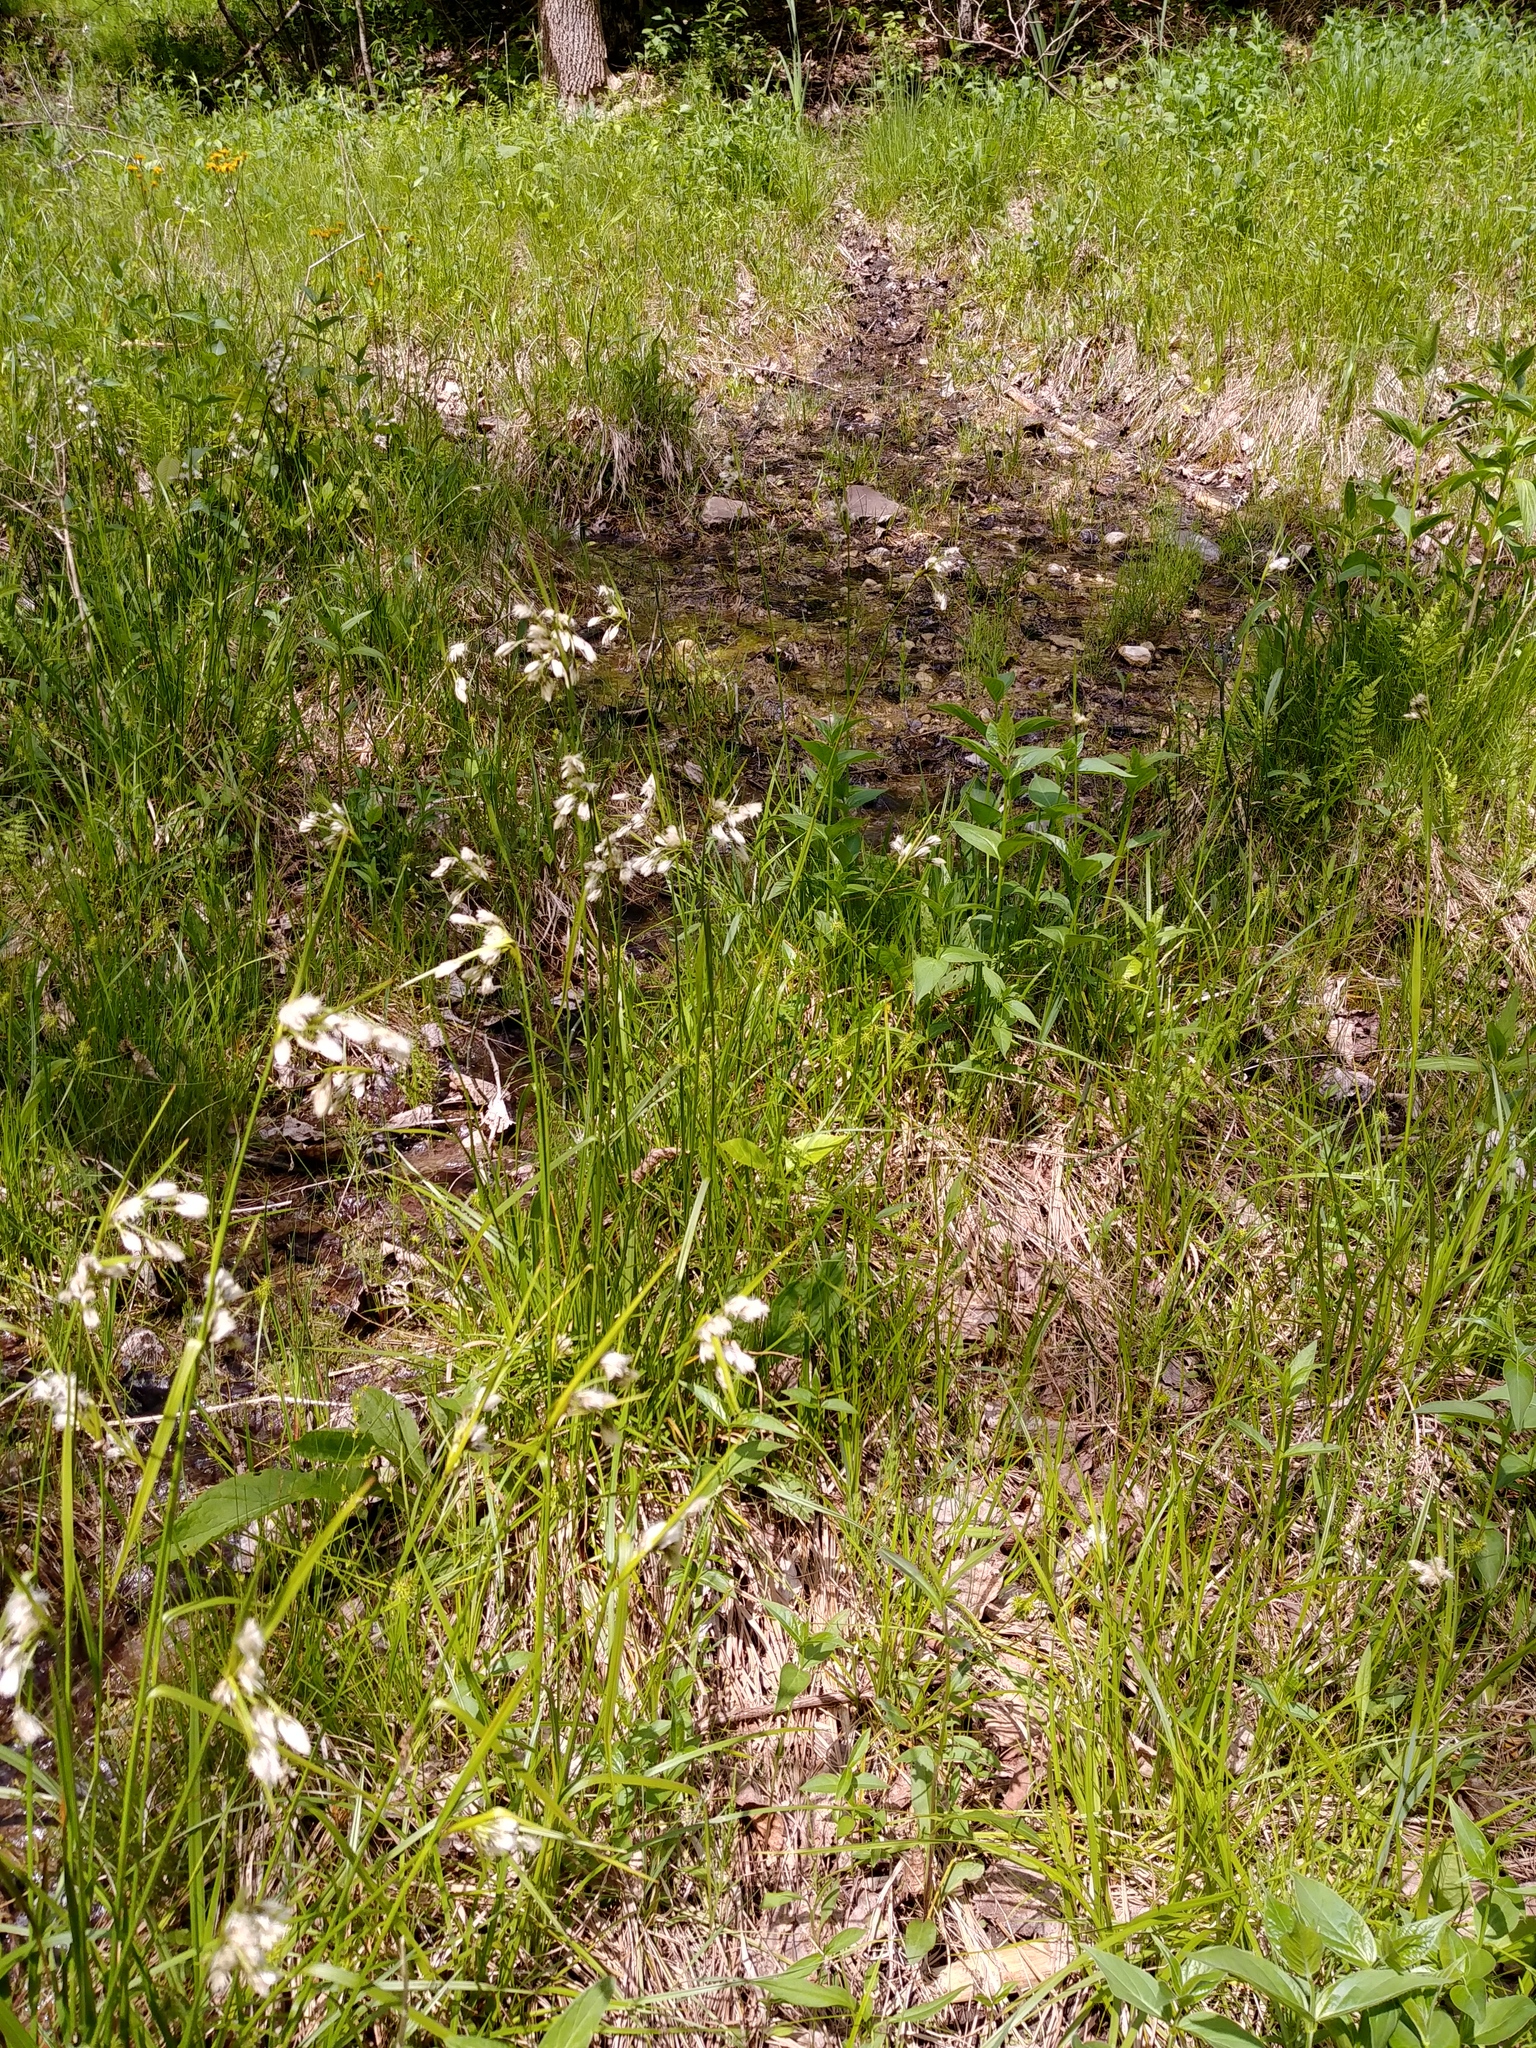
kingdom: Plantae
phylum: Tracheophyta
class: Liliopsida
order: Poales
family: Cyperaceae
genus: Eriophorum
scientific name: Eriophorum viridicarinatum
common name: Green-keeled cottongrass
